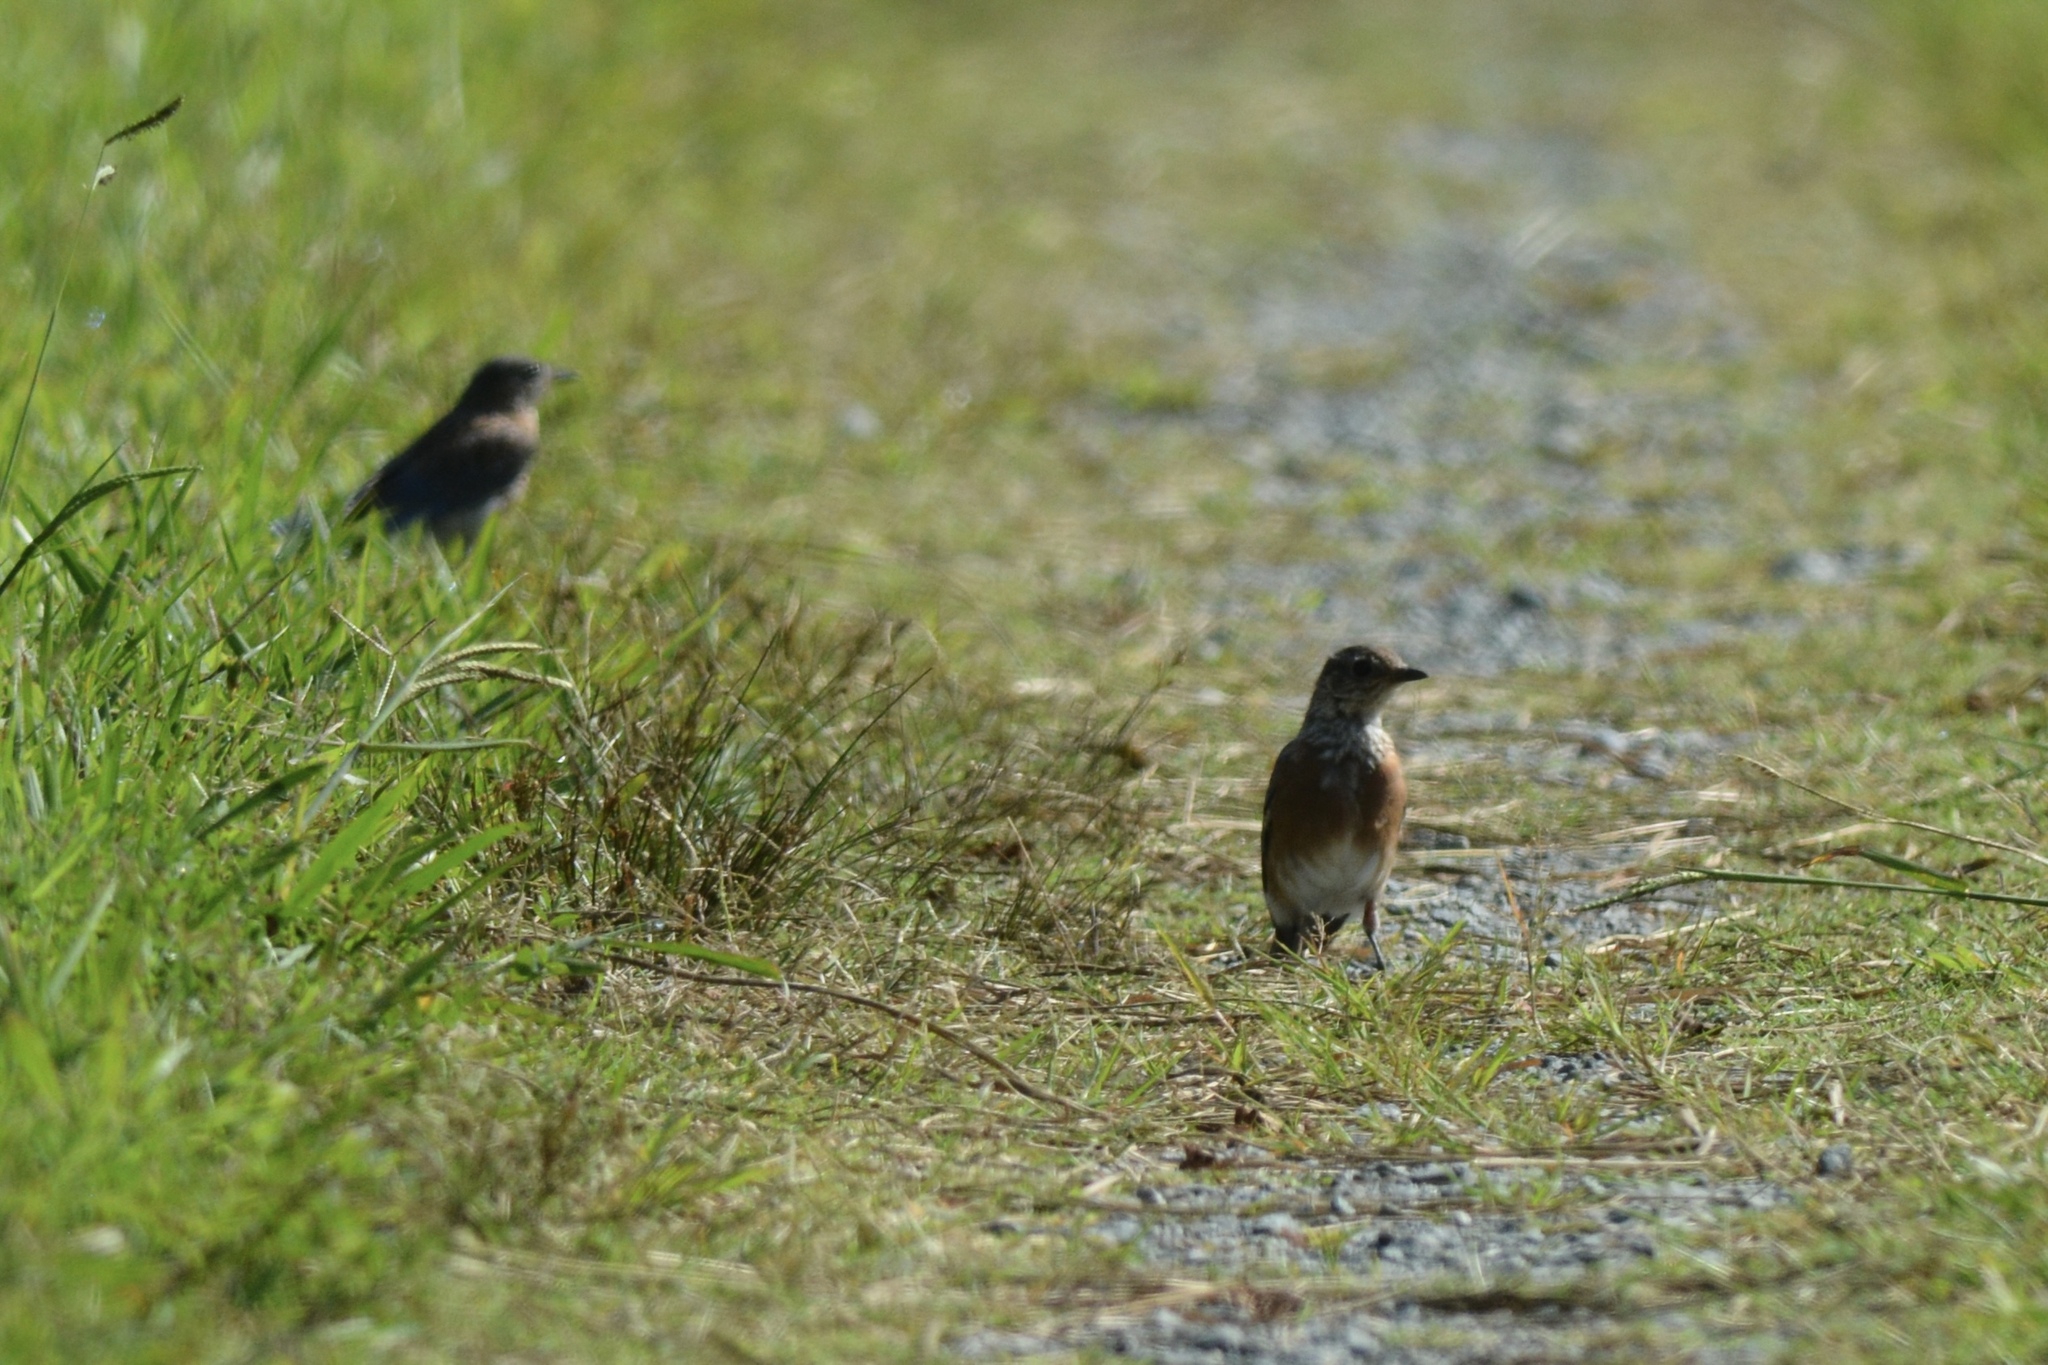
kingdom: Animalia
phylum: Chordata
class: Aves
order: Passeriformes
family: Turdidae
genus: Sialia
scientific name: Sialia sialis
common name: Eastern bluebird
